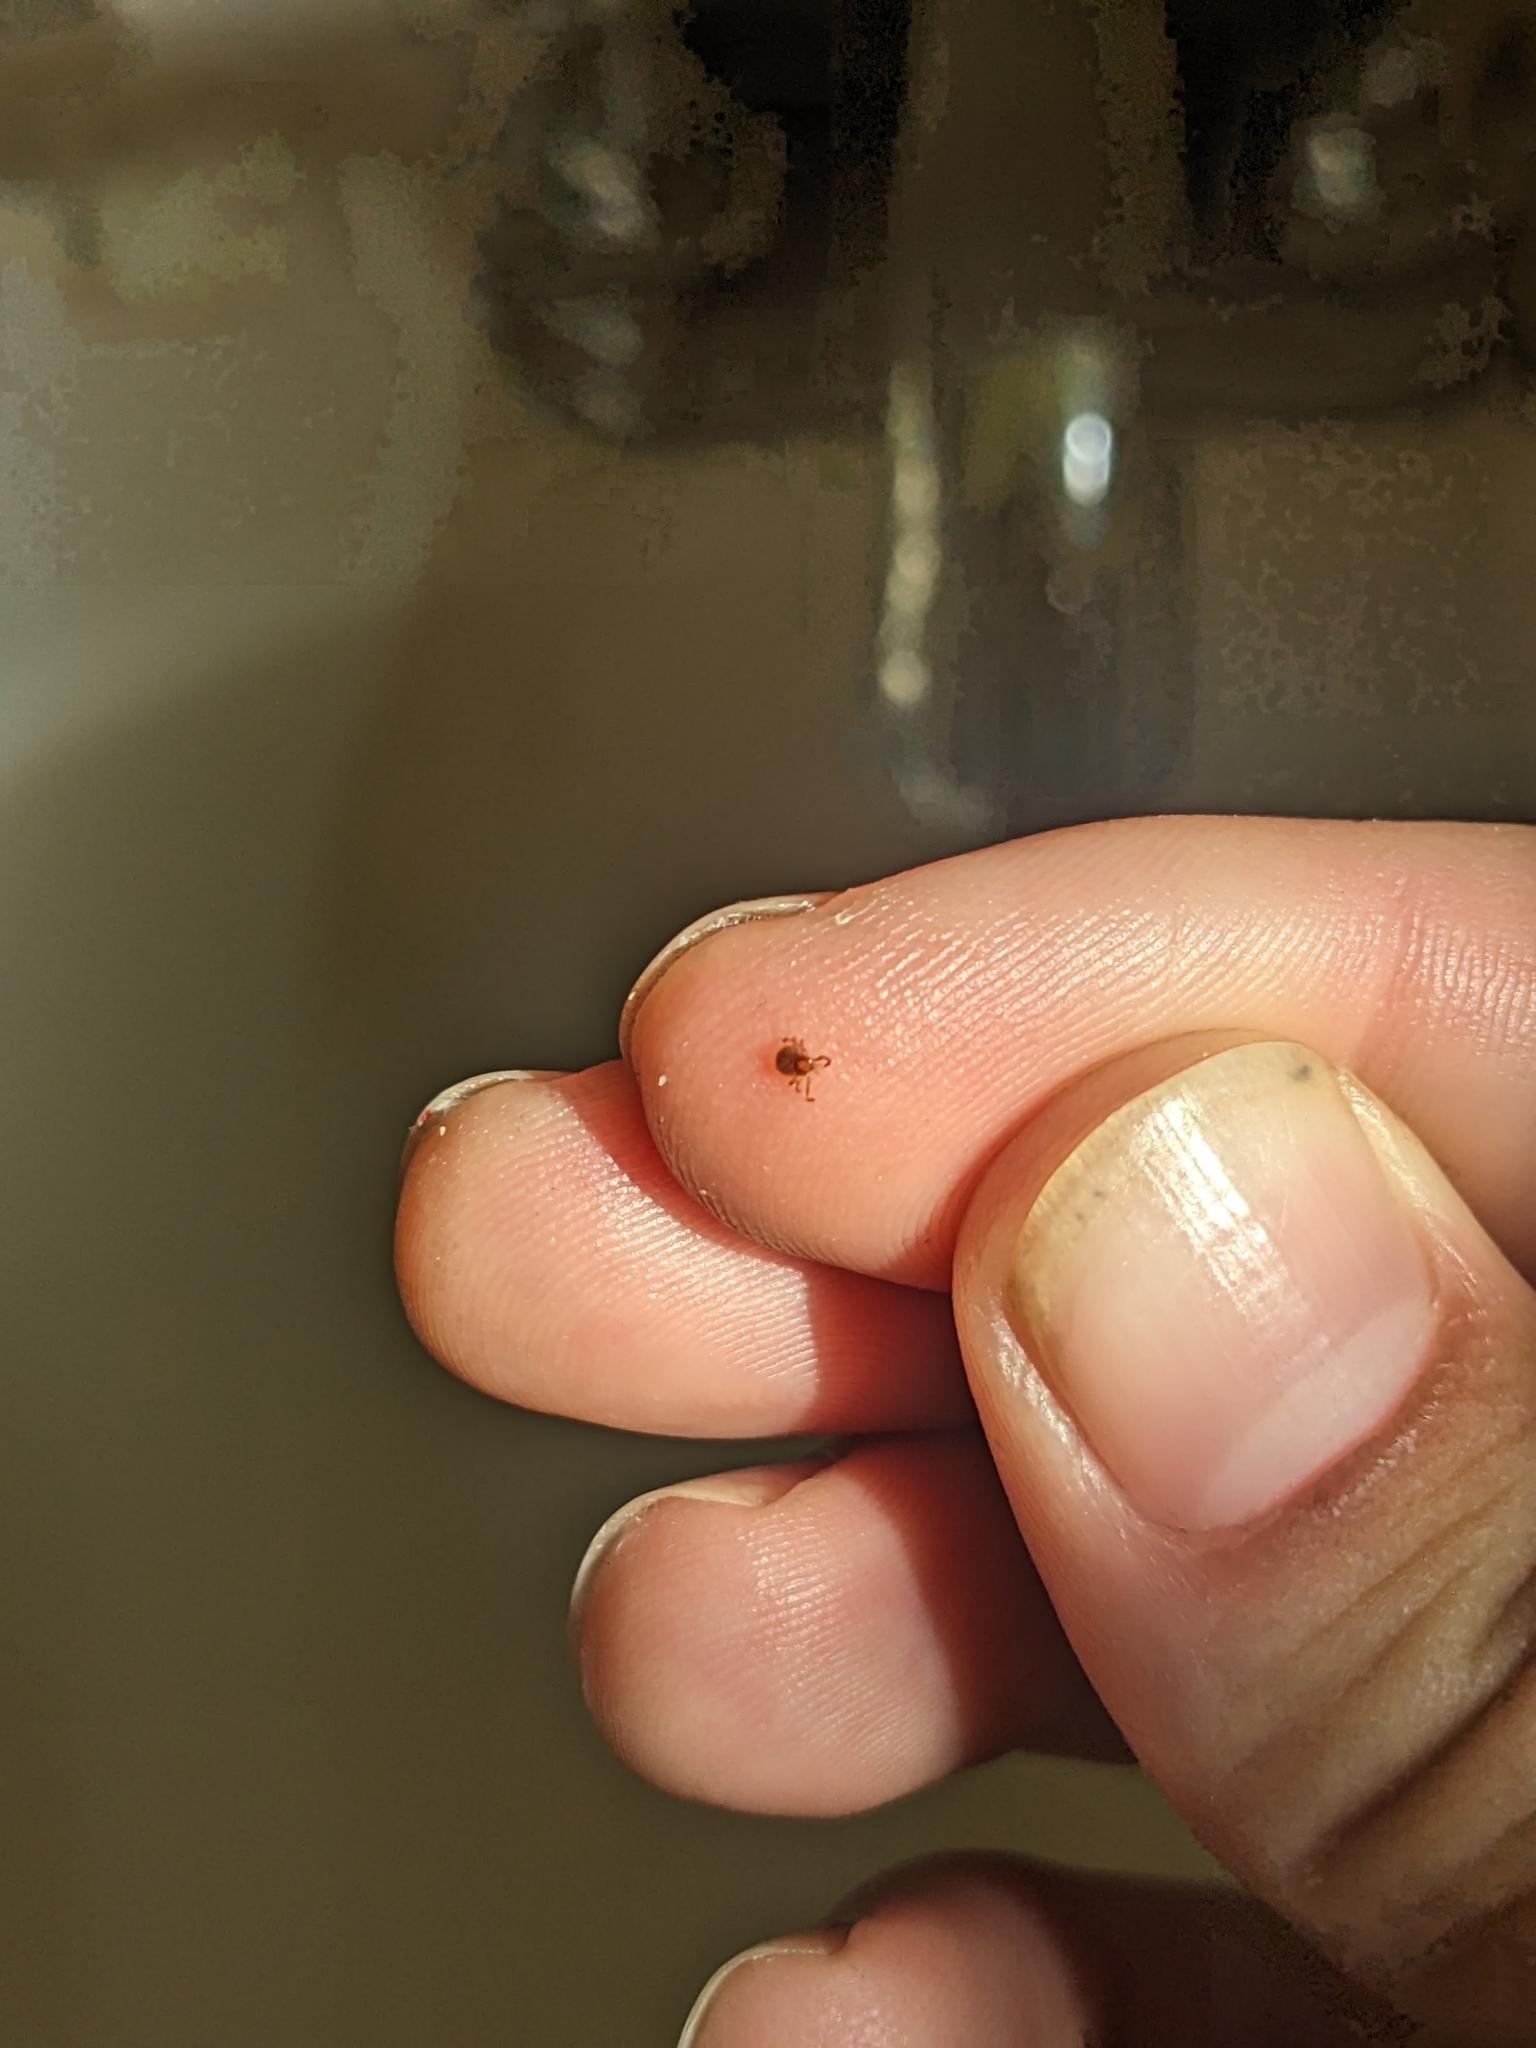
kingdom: Animalia
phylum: Arthropoda
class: Arachnida
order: Ixodida
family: Ixodidae
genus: Amblyomma
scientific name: Amblyomma americanum
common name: Lone star tick
